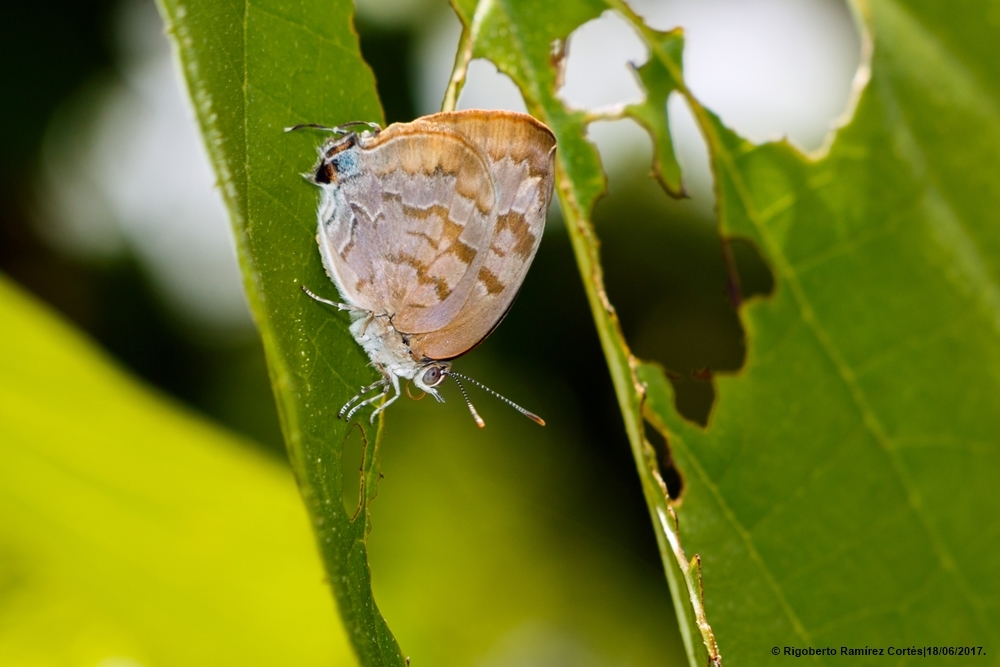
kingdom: Animalia
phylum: Arthropoda
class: Insecta
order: Lepidoptera
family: Lycaenidae
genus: Rekoa
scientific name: Rekoa palegon
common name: Gold-bordered hairstreak
